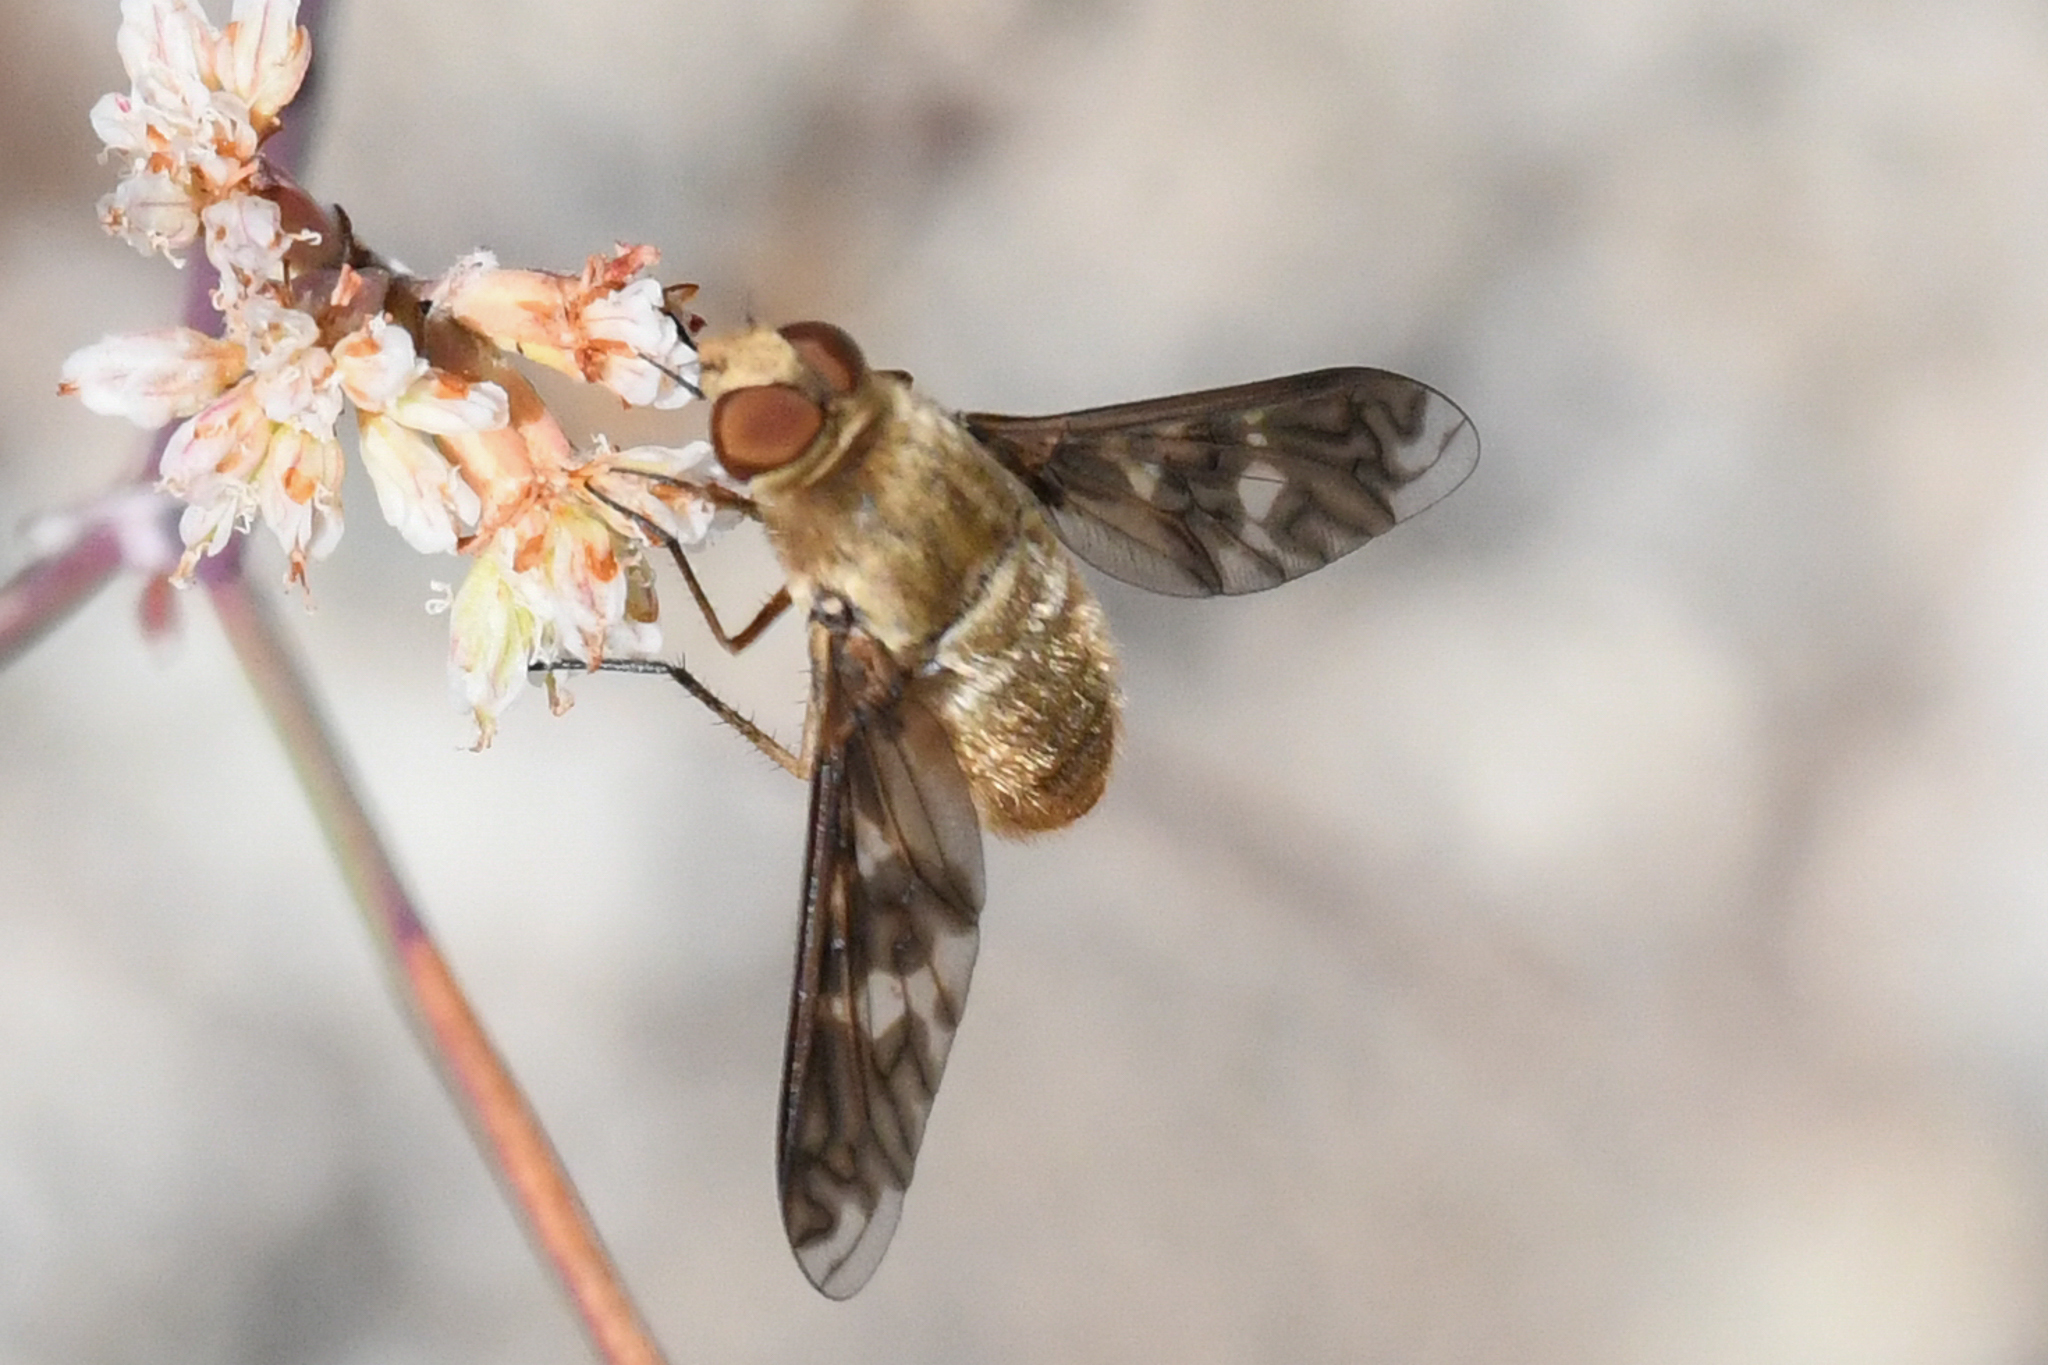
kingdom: Animalia
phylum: Arthropoda
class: Insecta
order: Diptera
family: Bombyliidae
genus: Dipalta
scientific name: Dipalta serpentina
